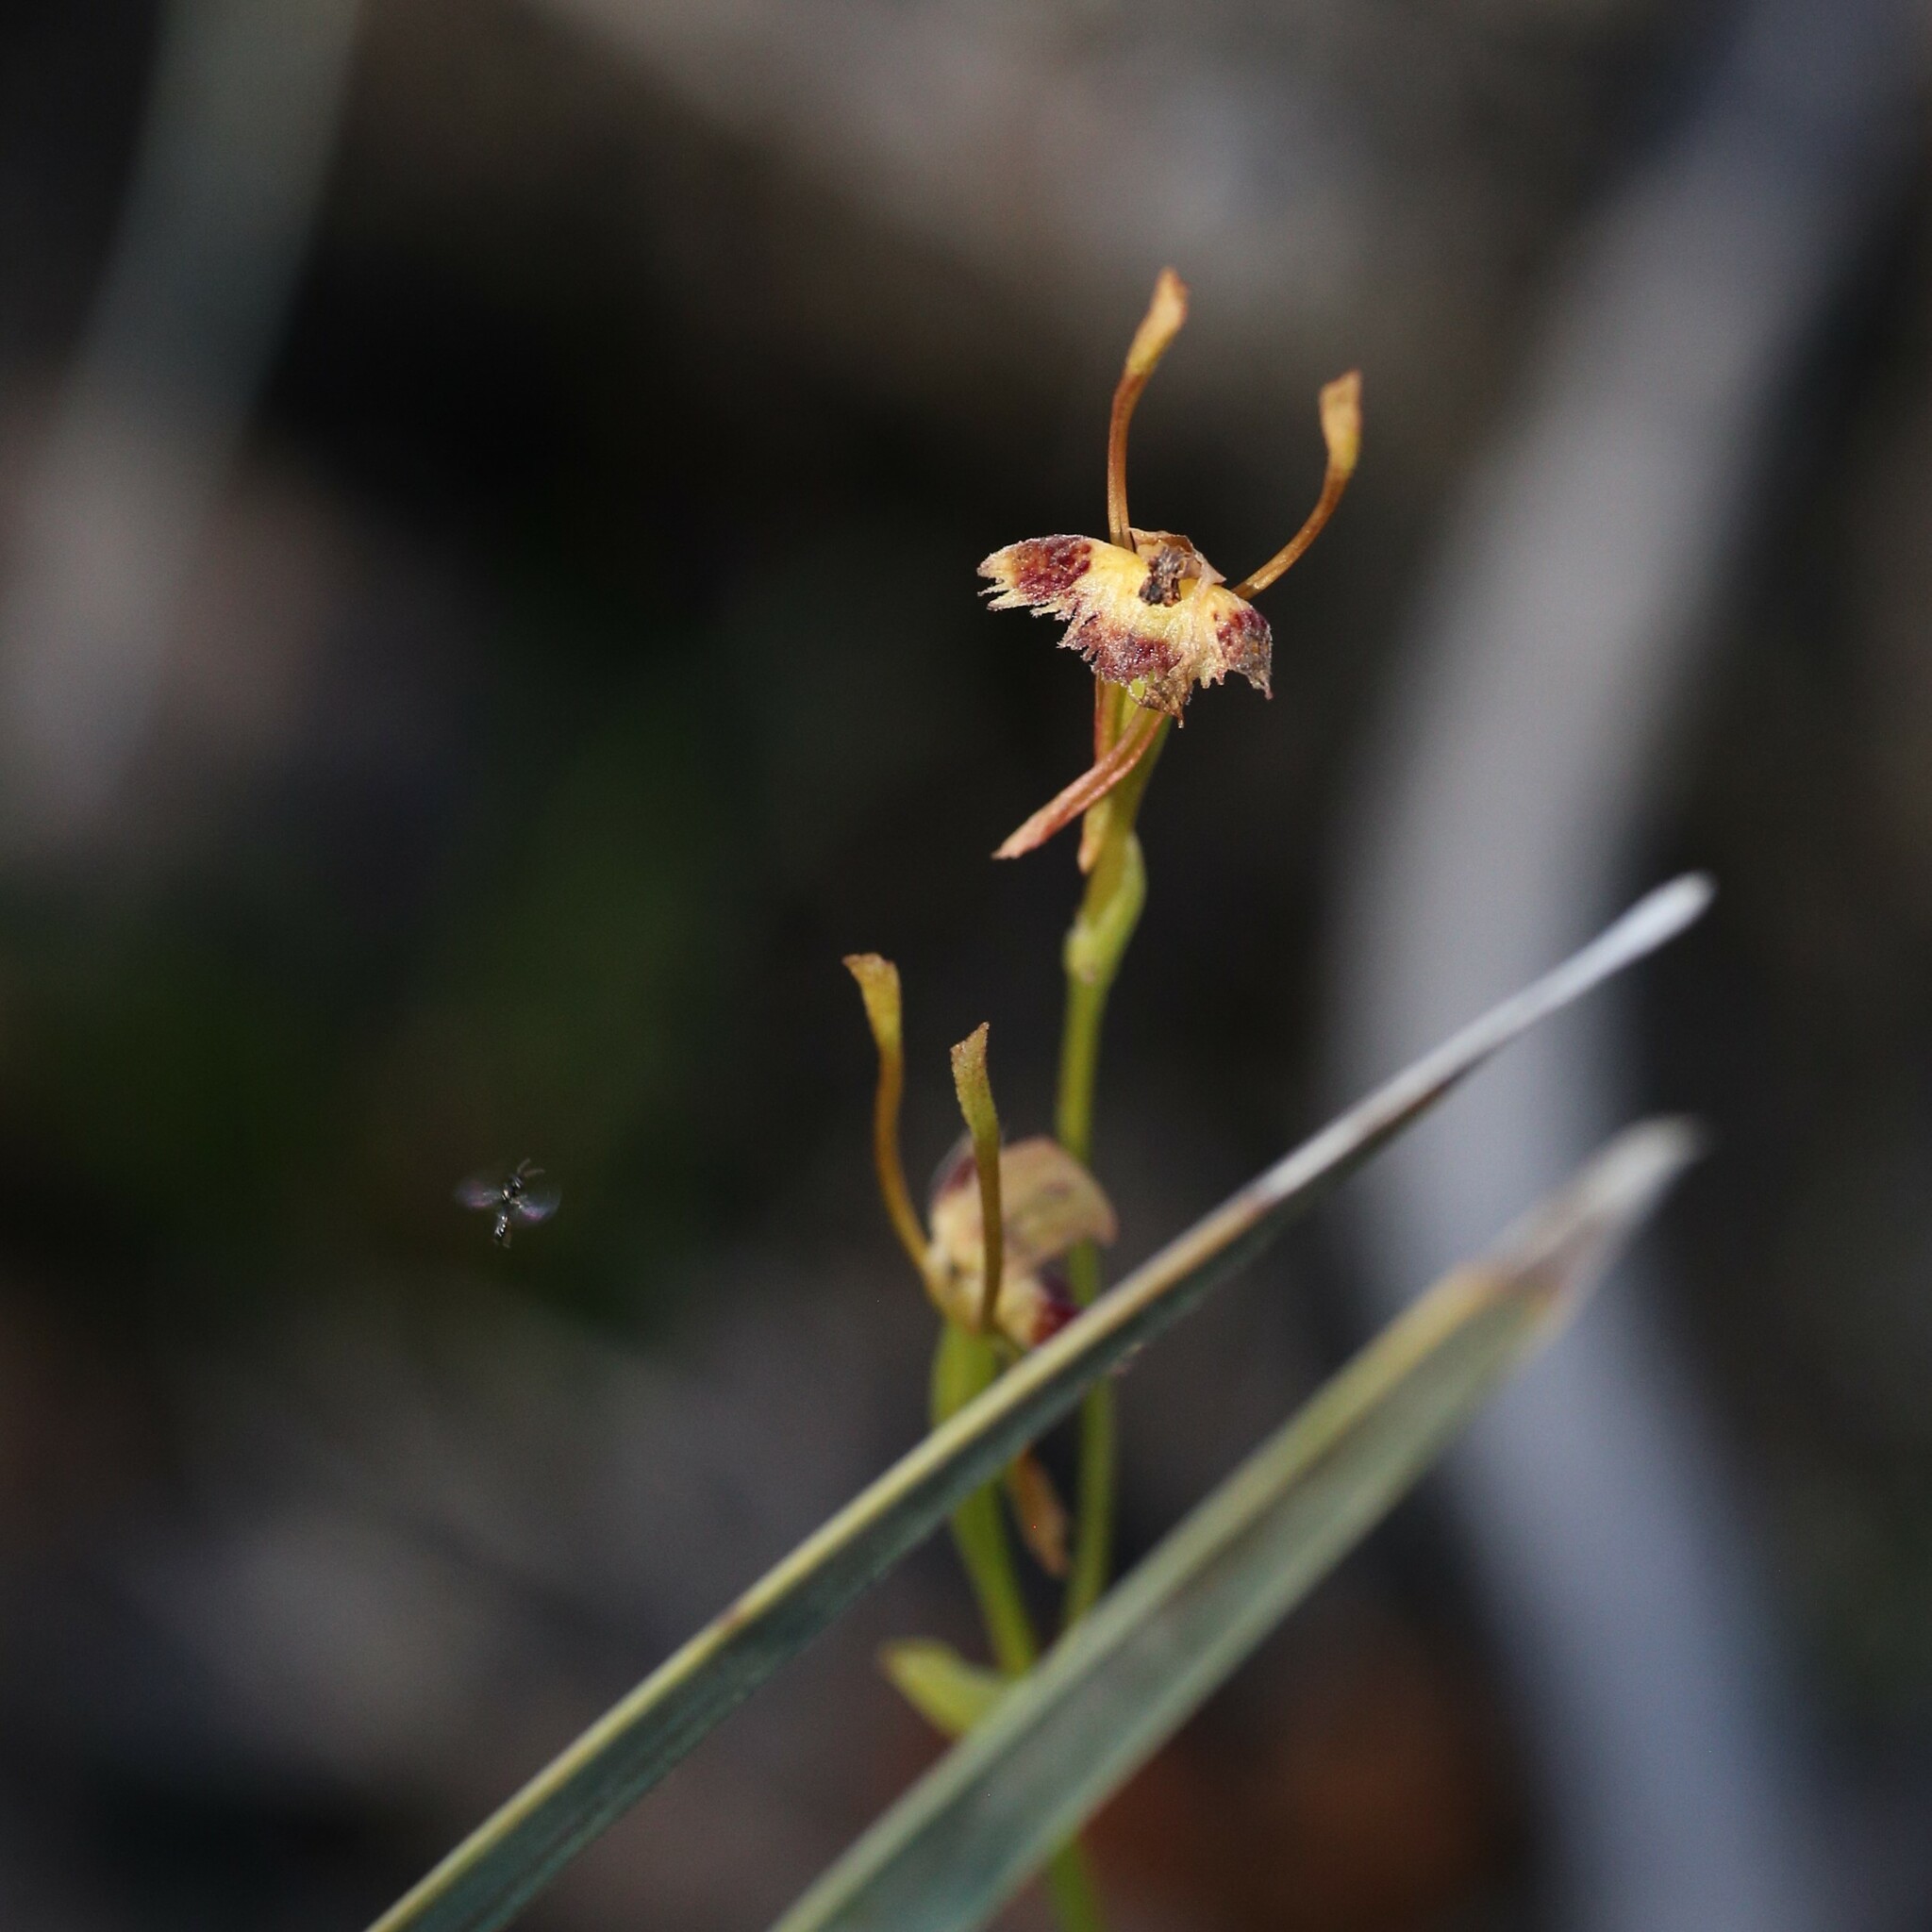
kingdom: Plantae
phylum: Tracheophyta
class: Liliopsida
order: Asparagales
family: Orchidaceae
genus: Leporella
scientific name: Leporella fimbriata
